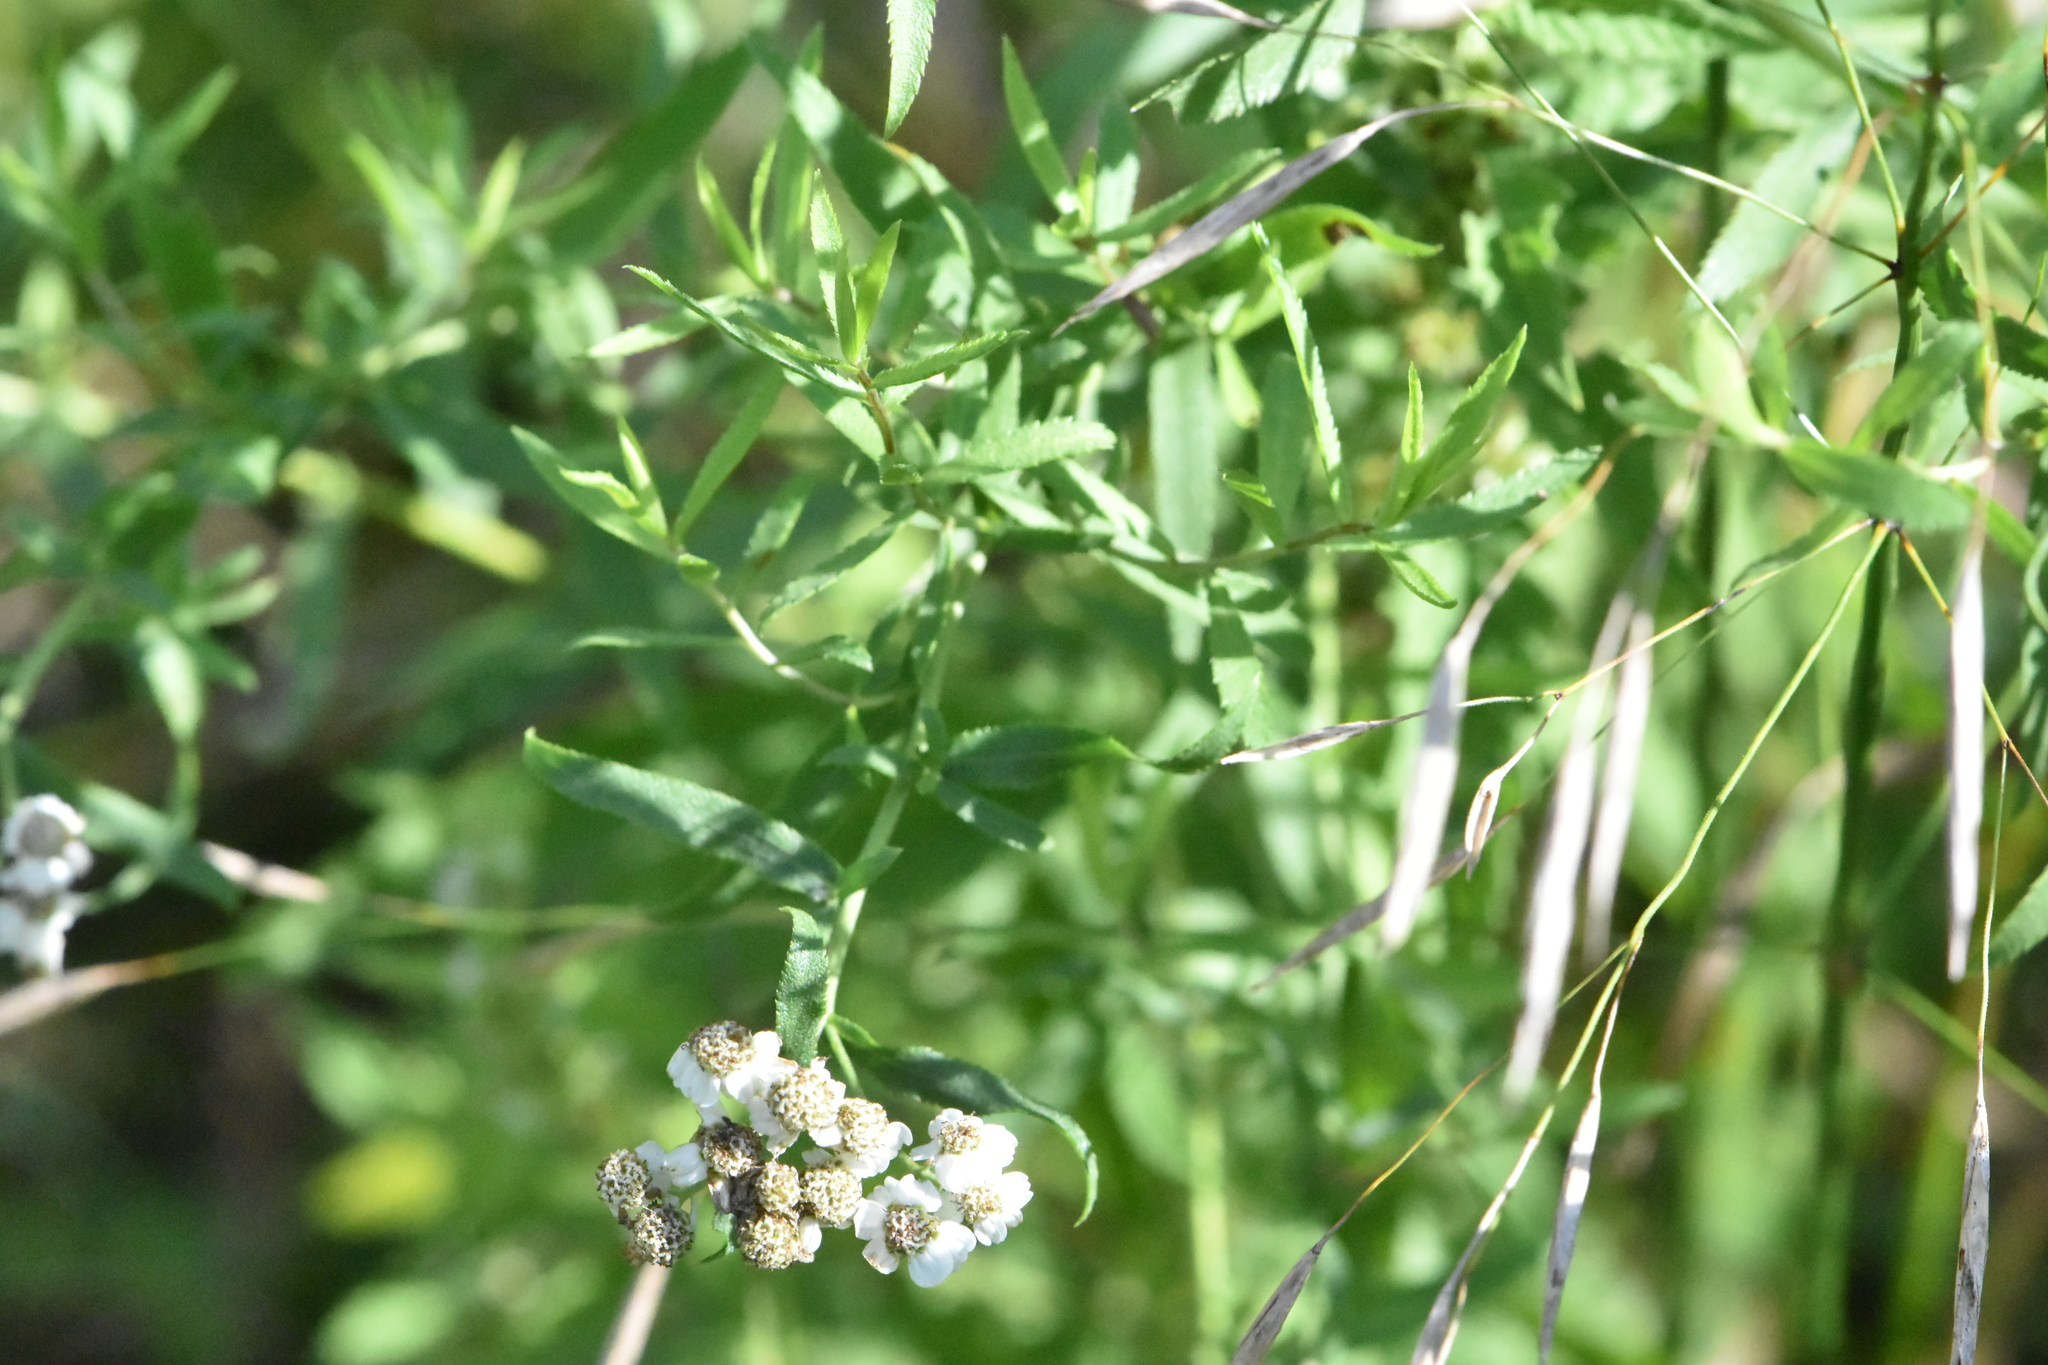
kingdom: Plantae
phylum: Tracheophyta
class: Magnoliopsida
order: Asterales
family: Asteraceae
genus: Achillea
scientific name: Achillea salicifolia
